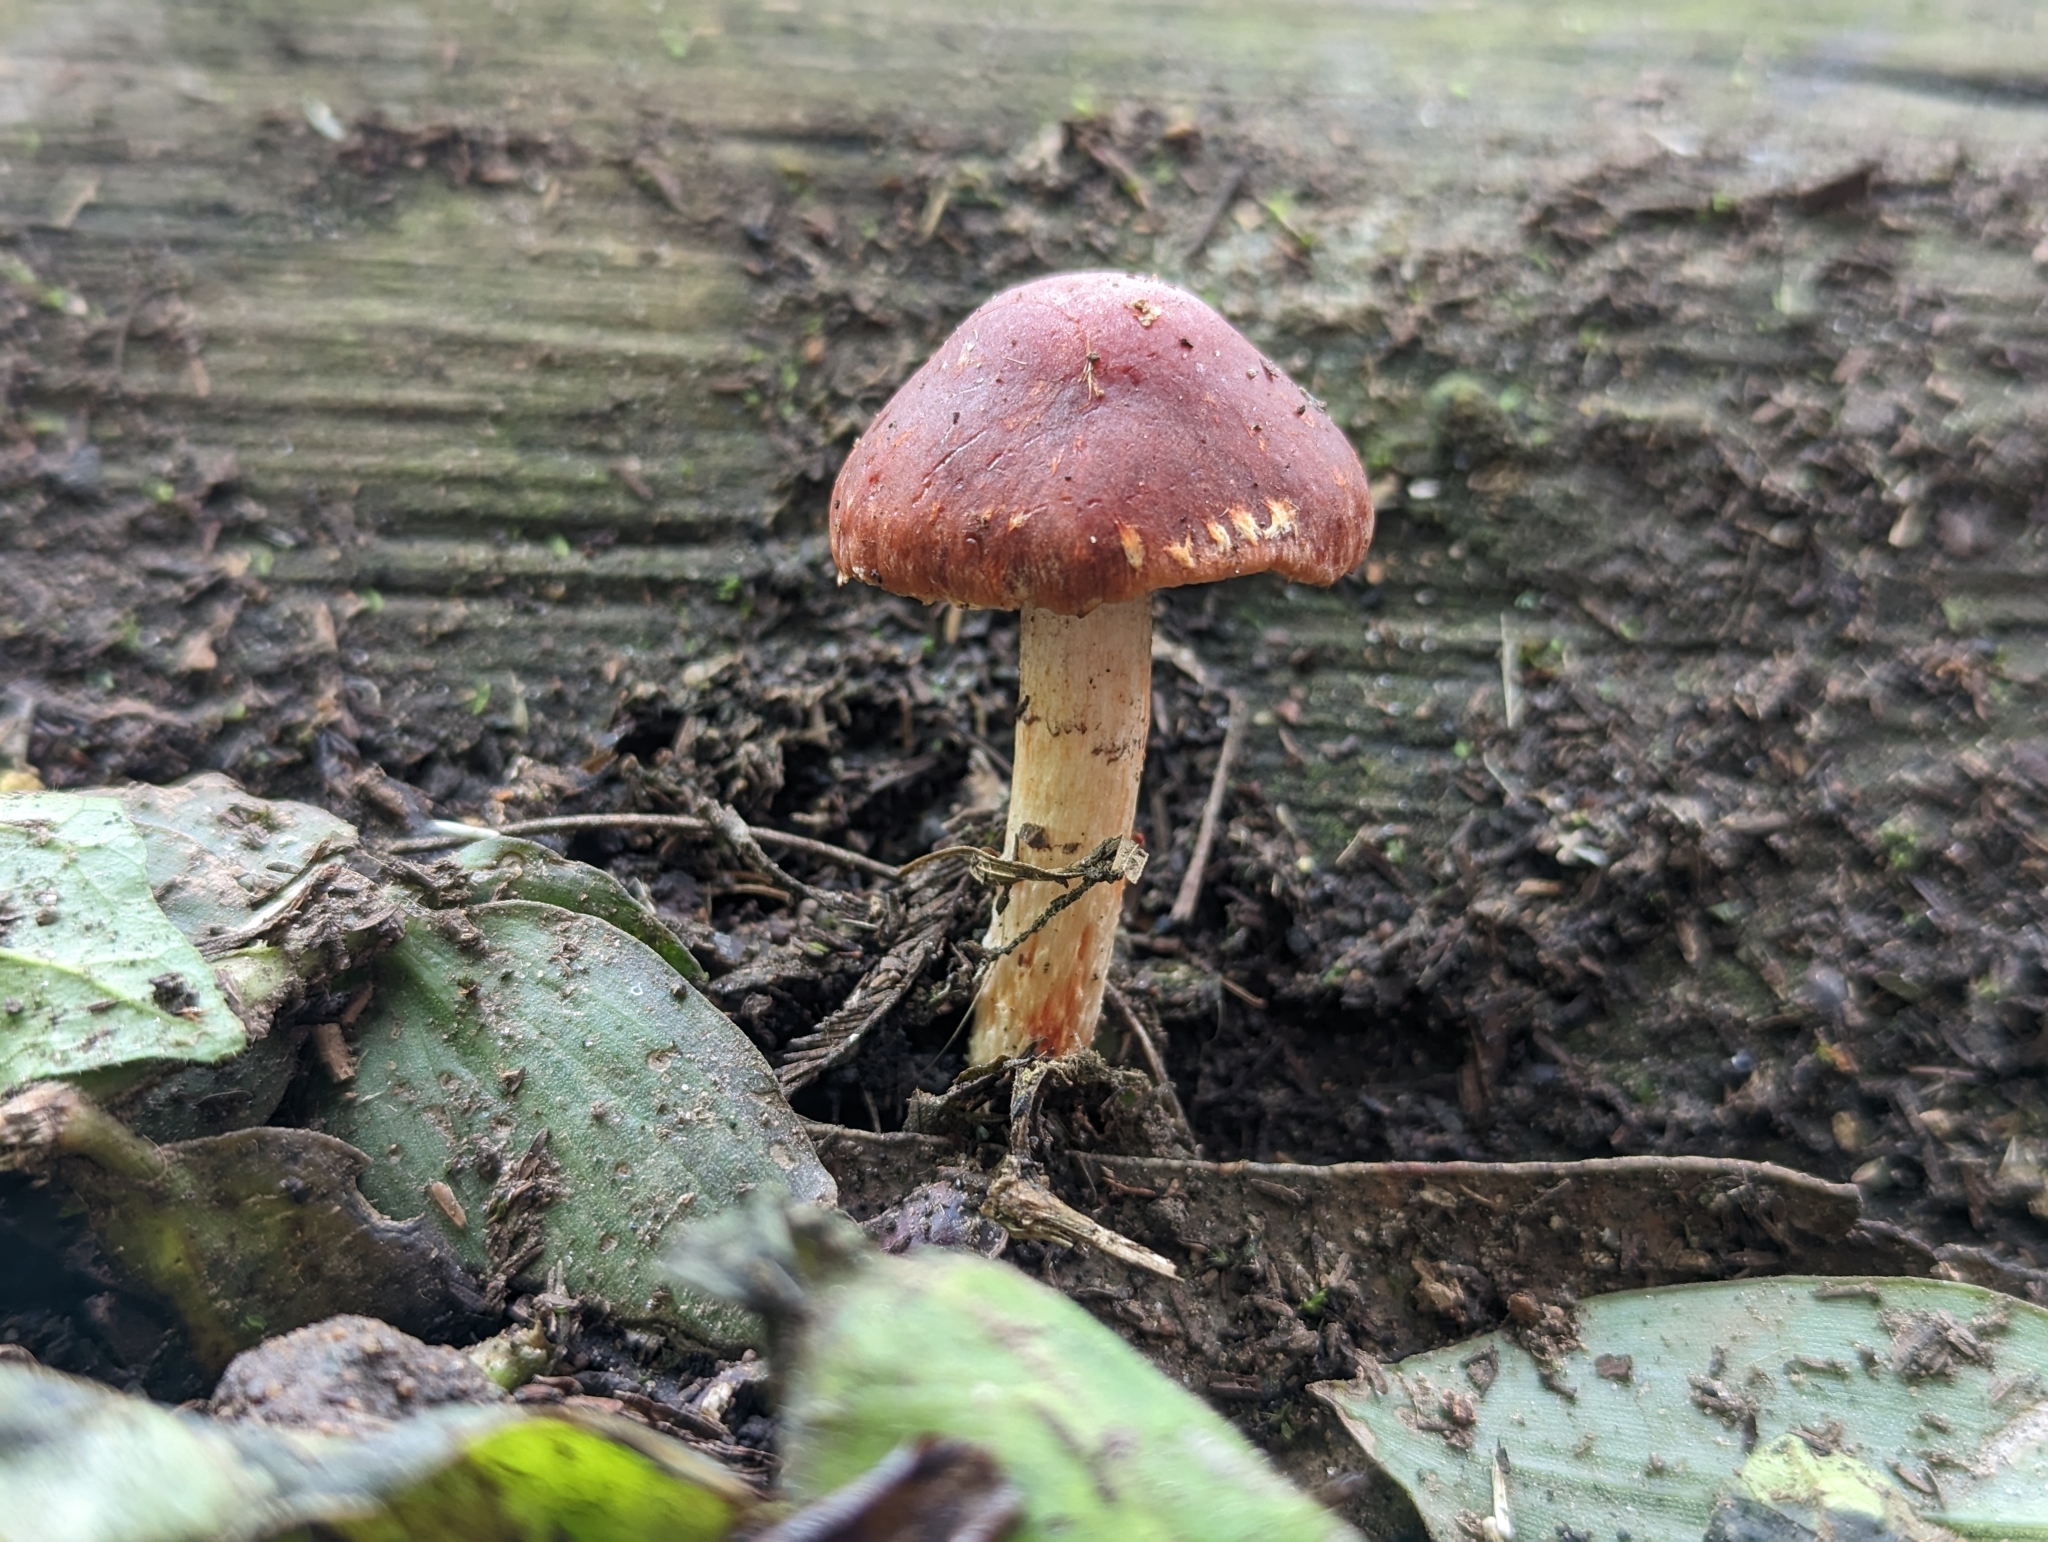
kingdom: Fungi
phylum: Basidiomycota
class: Agaricomycetes
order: Agaricales
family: Strophariaceae
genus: Leratiomyces
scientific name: Leratiomyces ceres
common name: Redlead roundhead
